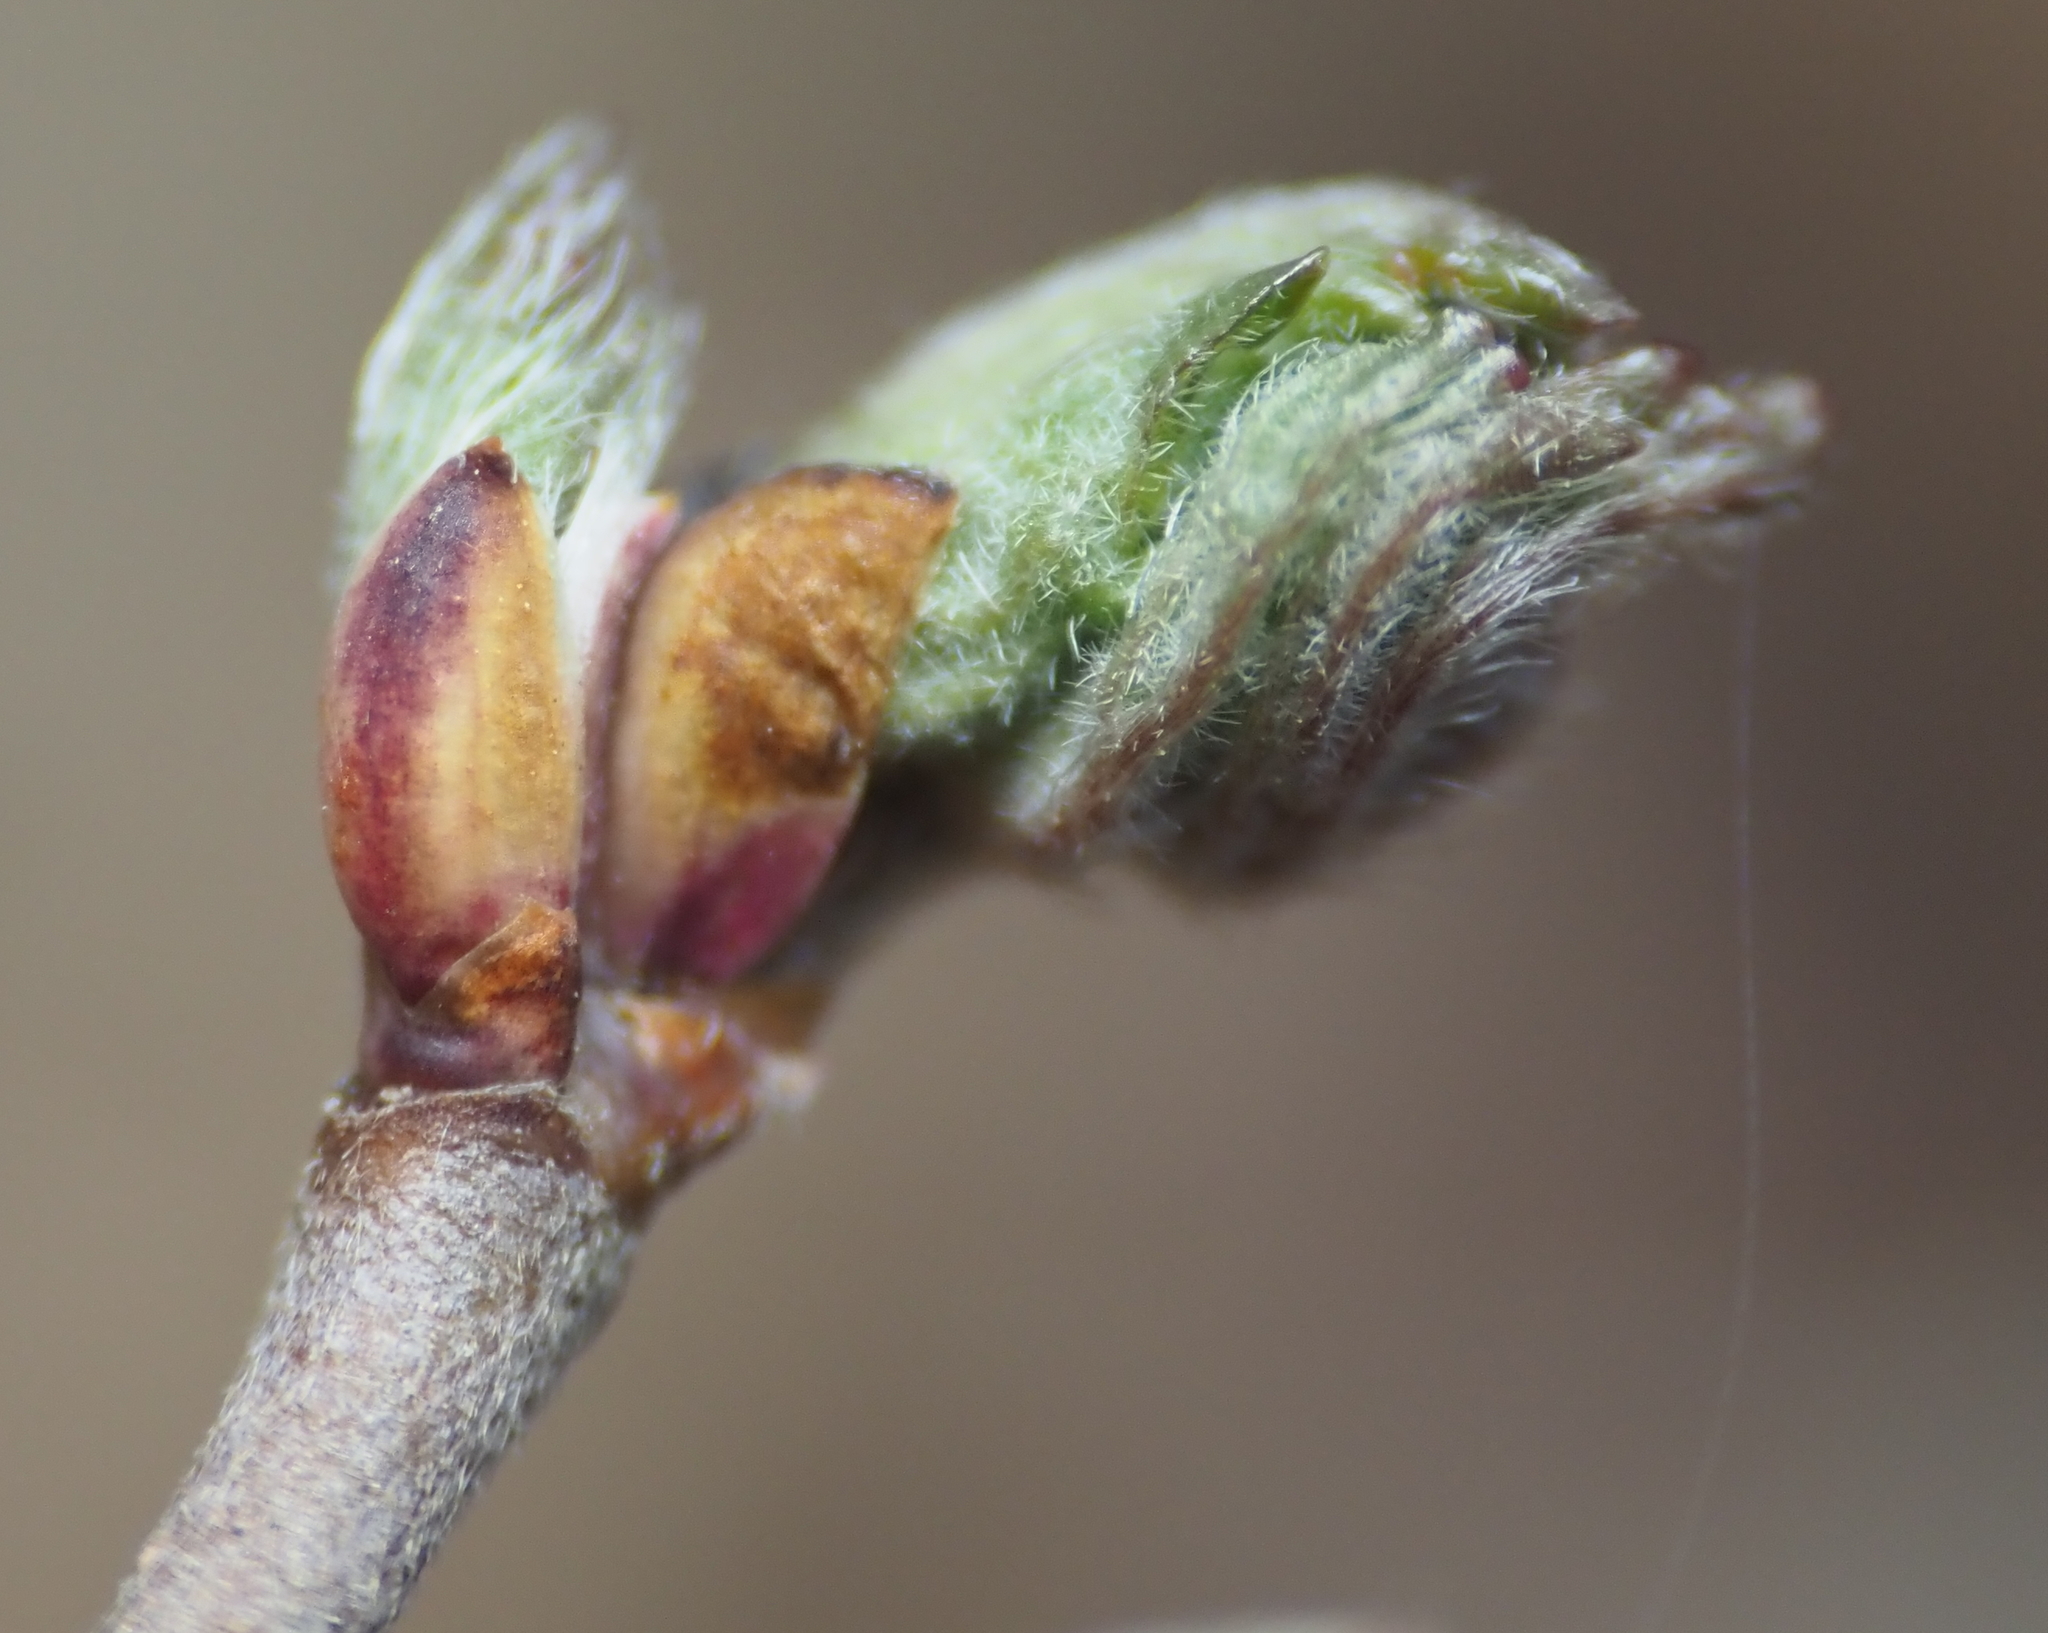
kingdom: Plantae
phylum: Tracheophyta
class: Magnoliopsida
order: Dipsacales
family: Viburnaceae
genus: Viburnum
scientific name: Viburnum acerifolium
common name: Dockmackie
